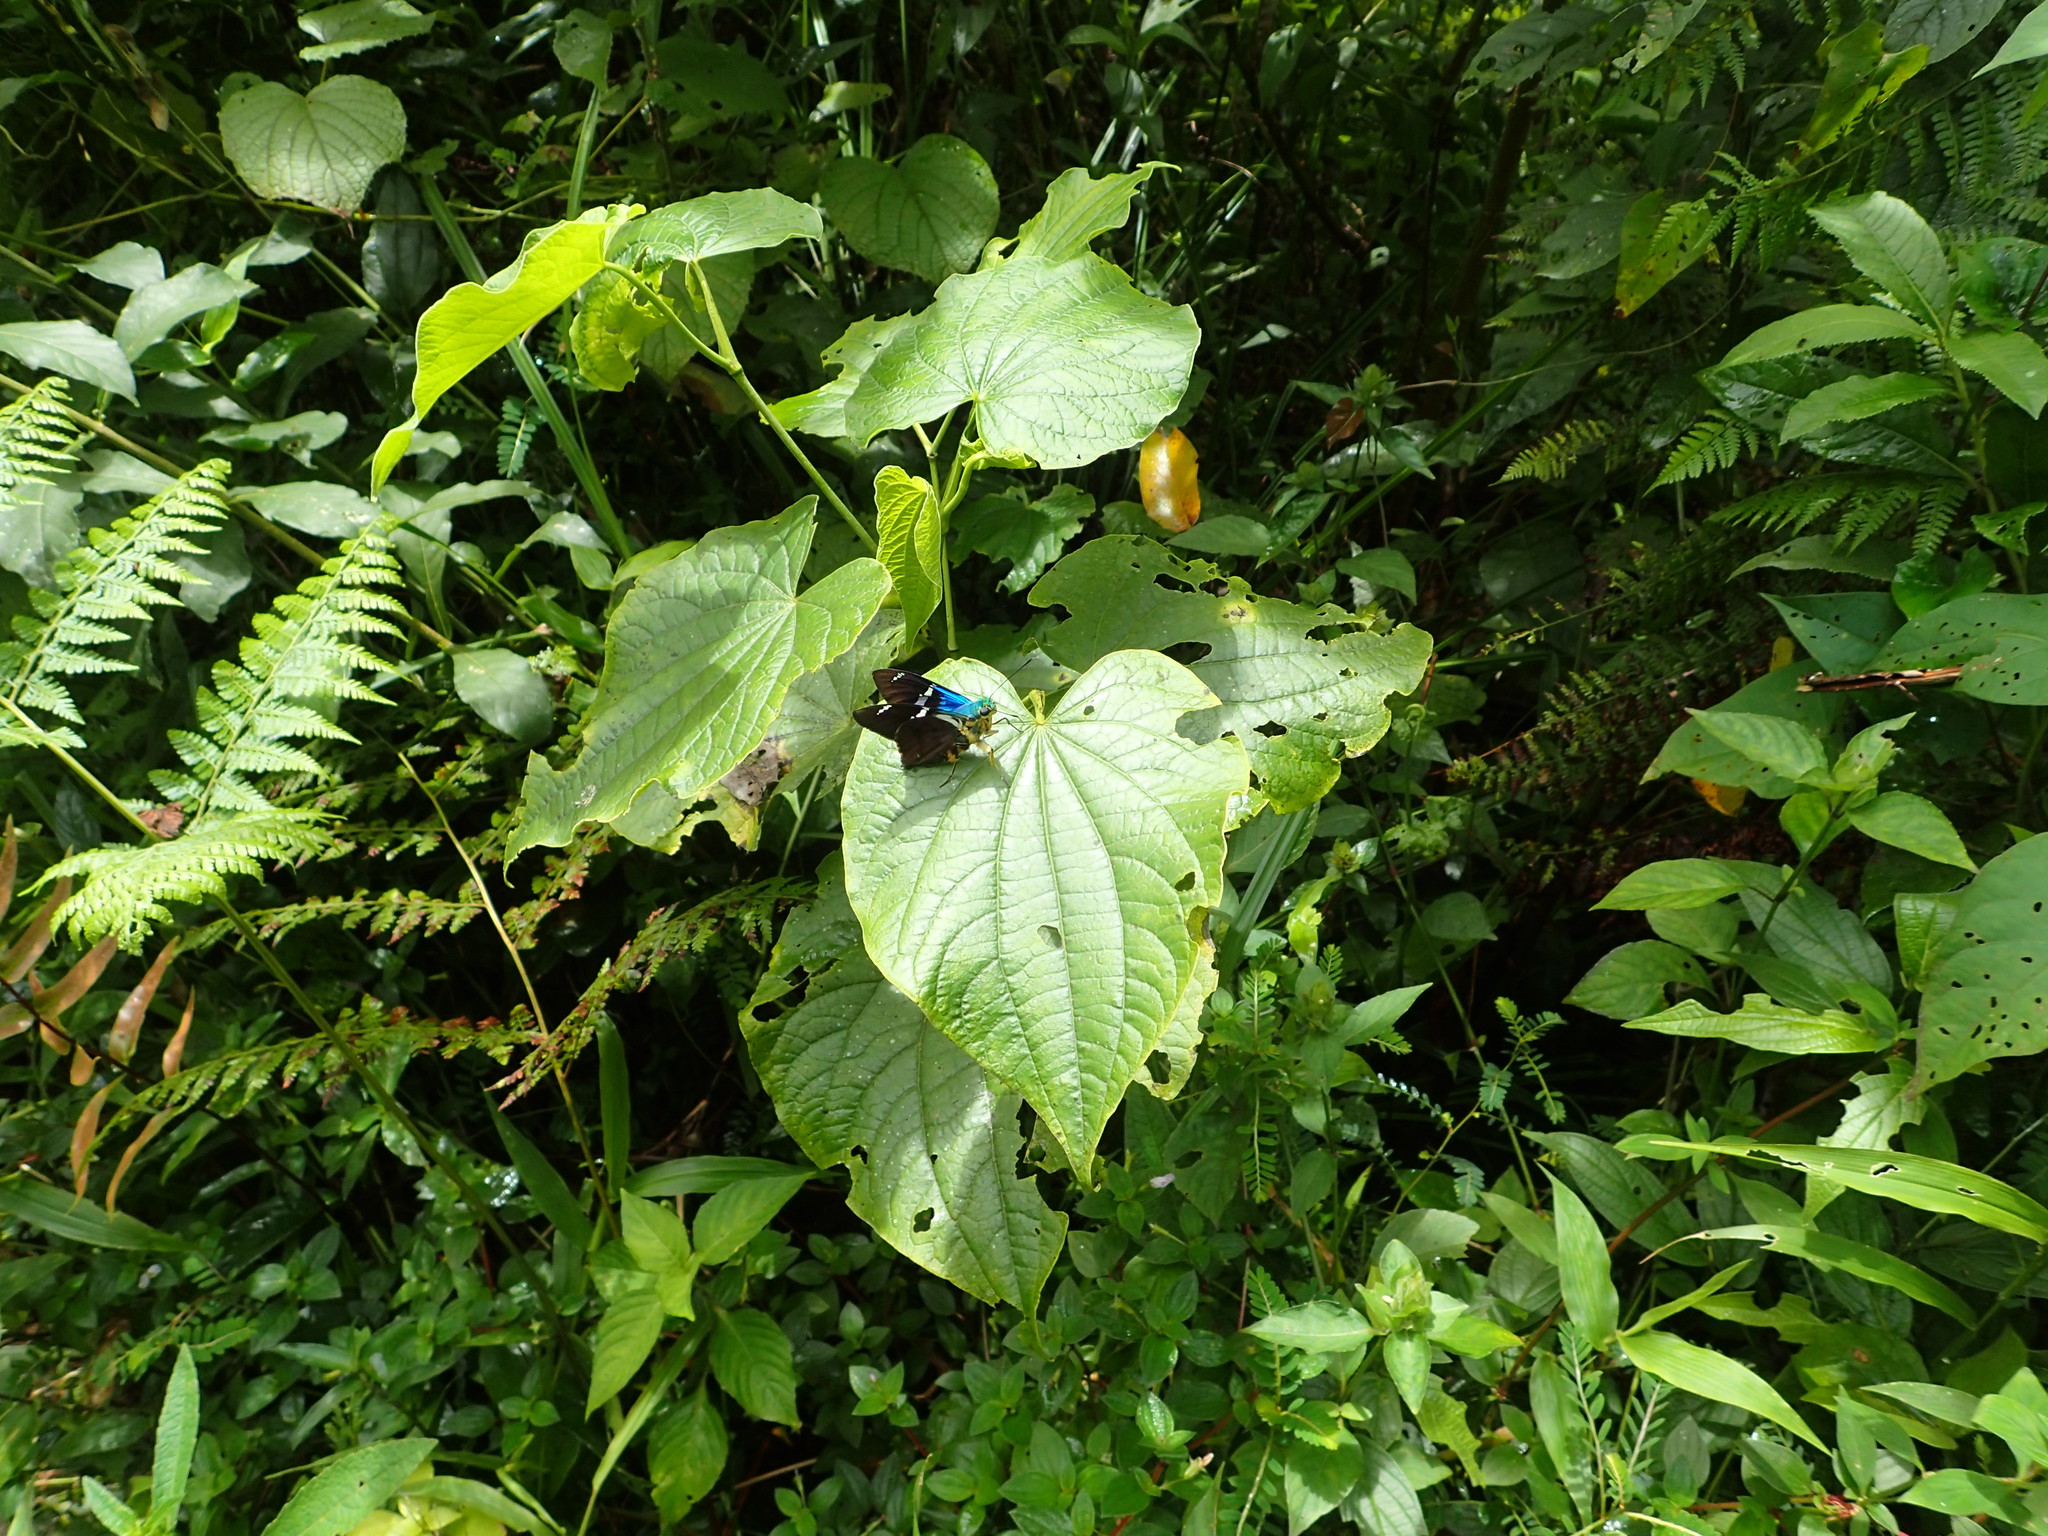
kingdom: Animalia
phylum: Arthropoda
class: Insecta
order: Lepidoptera
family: Hesperiidae
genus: Astraptes
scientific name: Astraptes fulgerator
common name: Two-barred flasher
